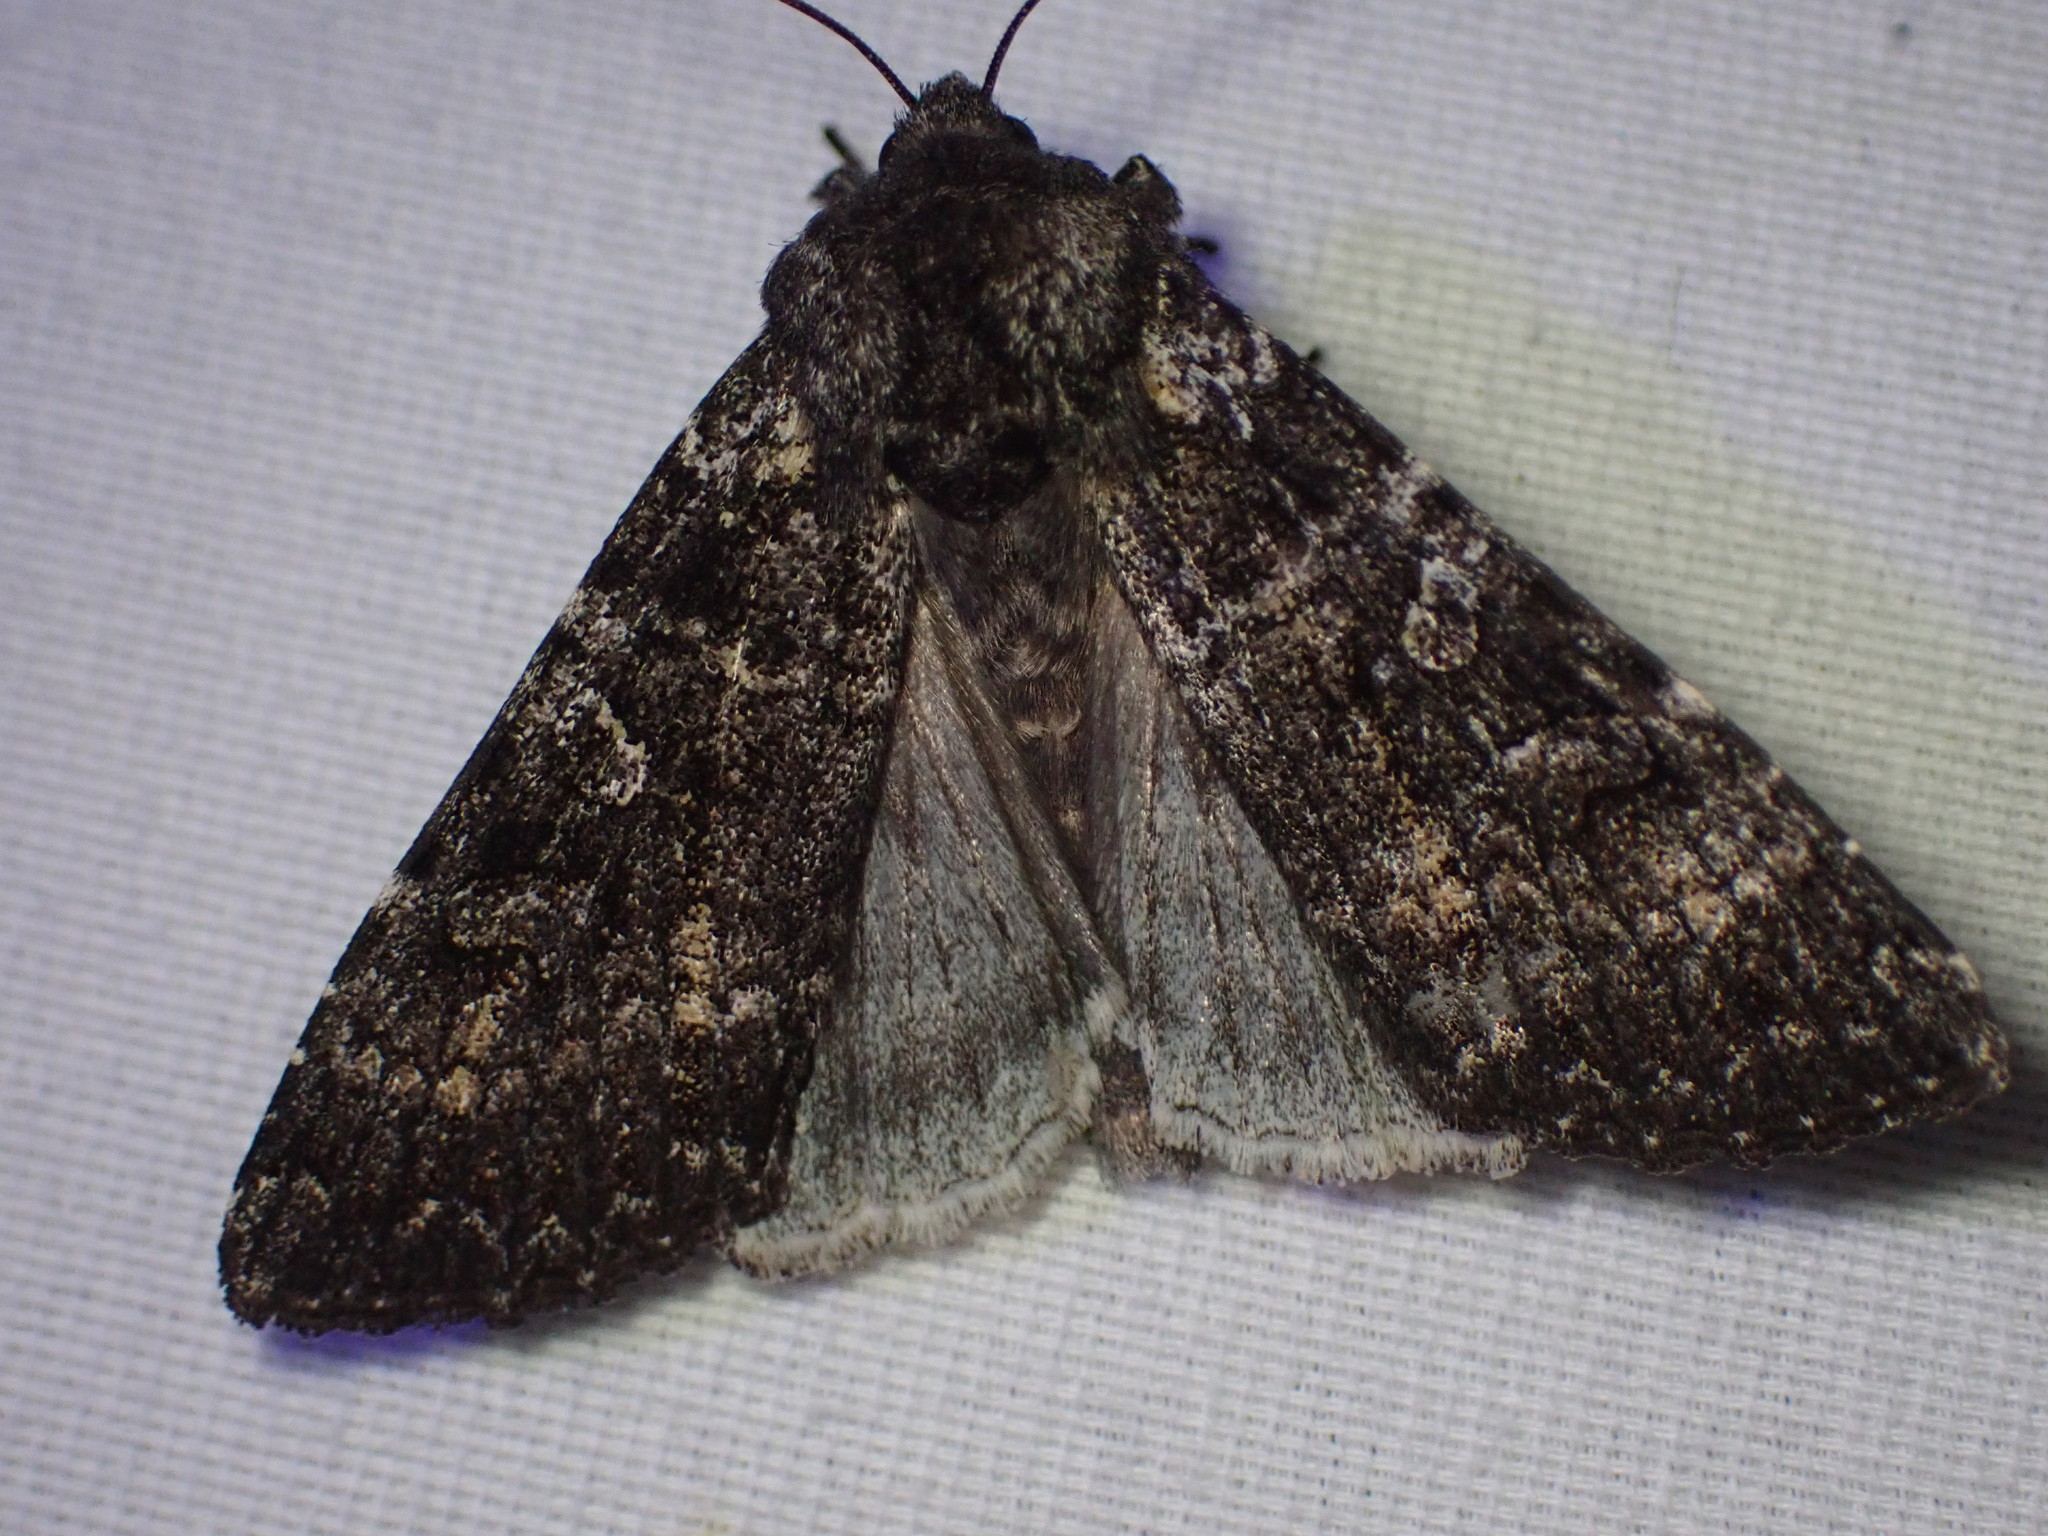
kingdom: Animalia
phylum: Arthropoda
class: Insecta
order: Lepidoptera
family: Noctuidae
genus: Eurois
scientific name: Eurois nigra
